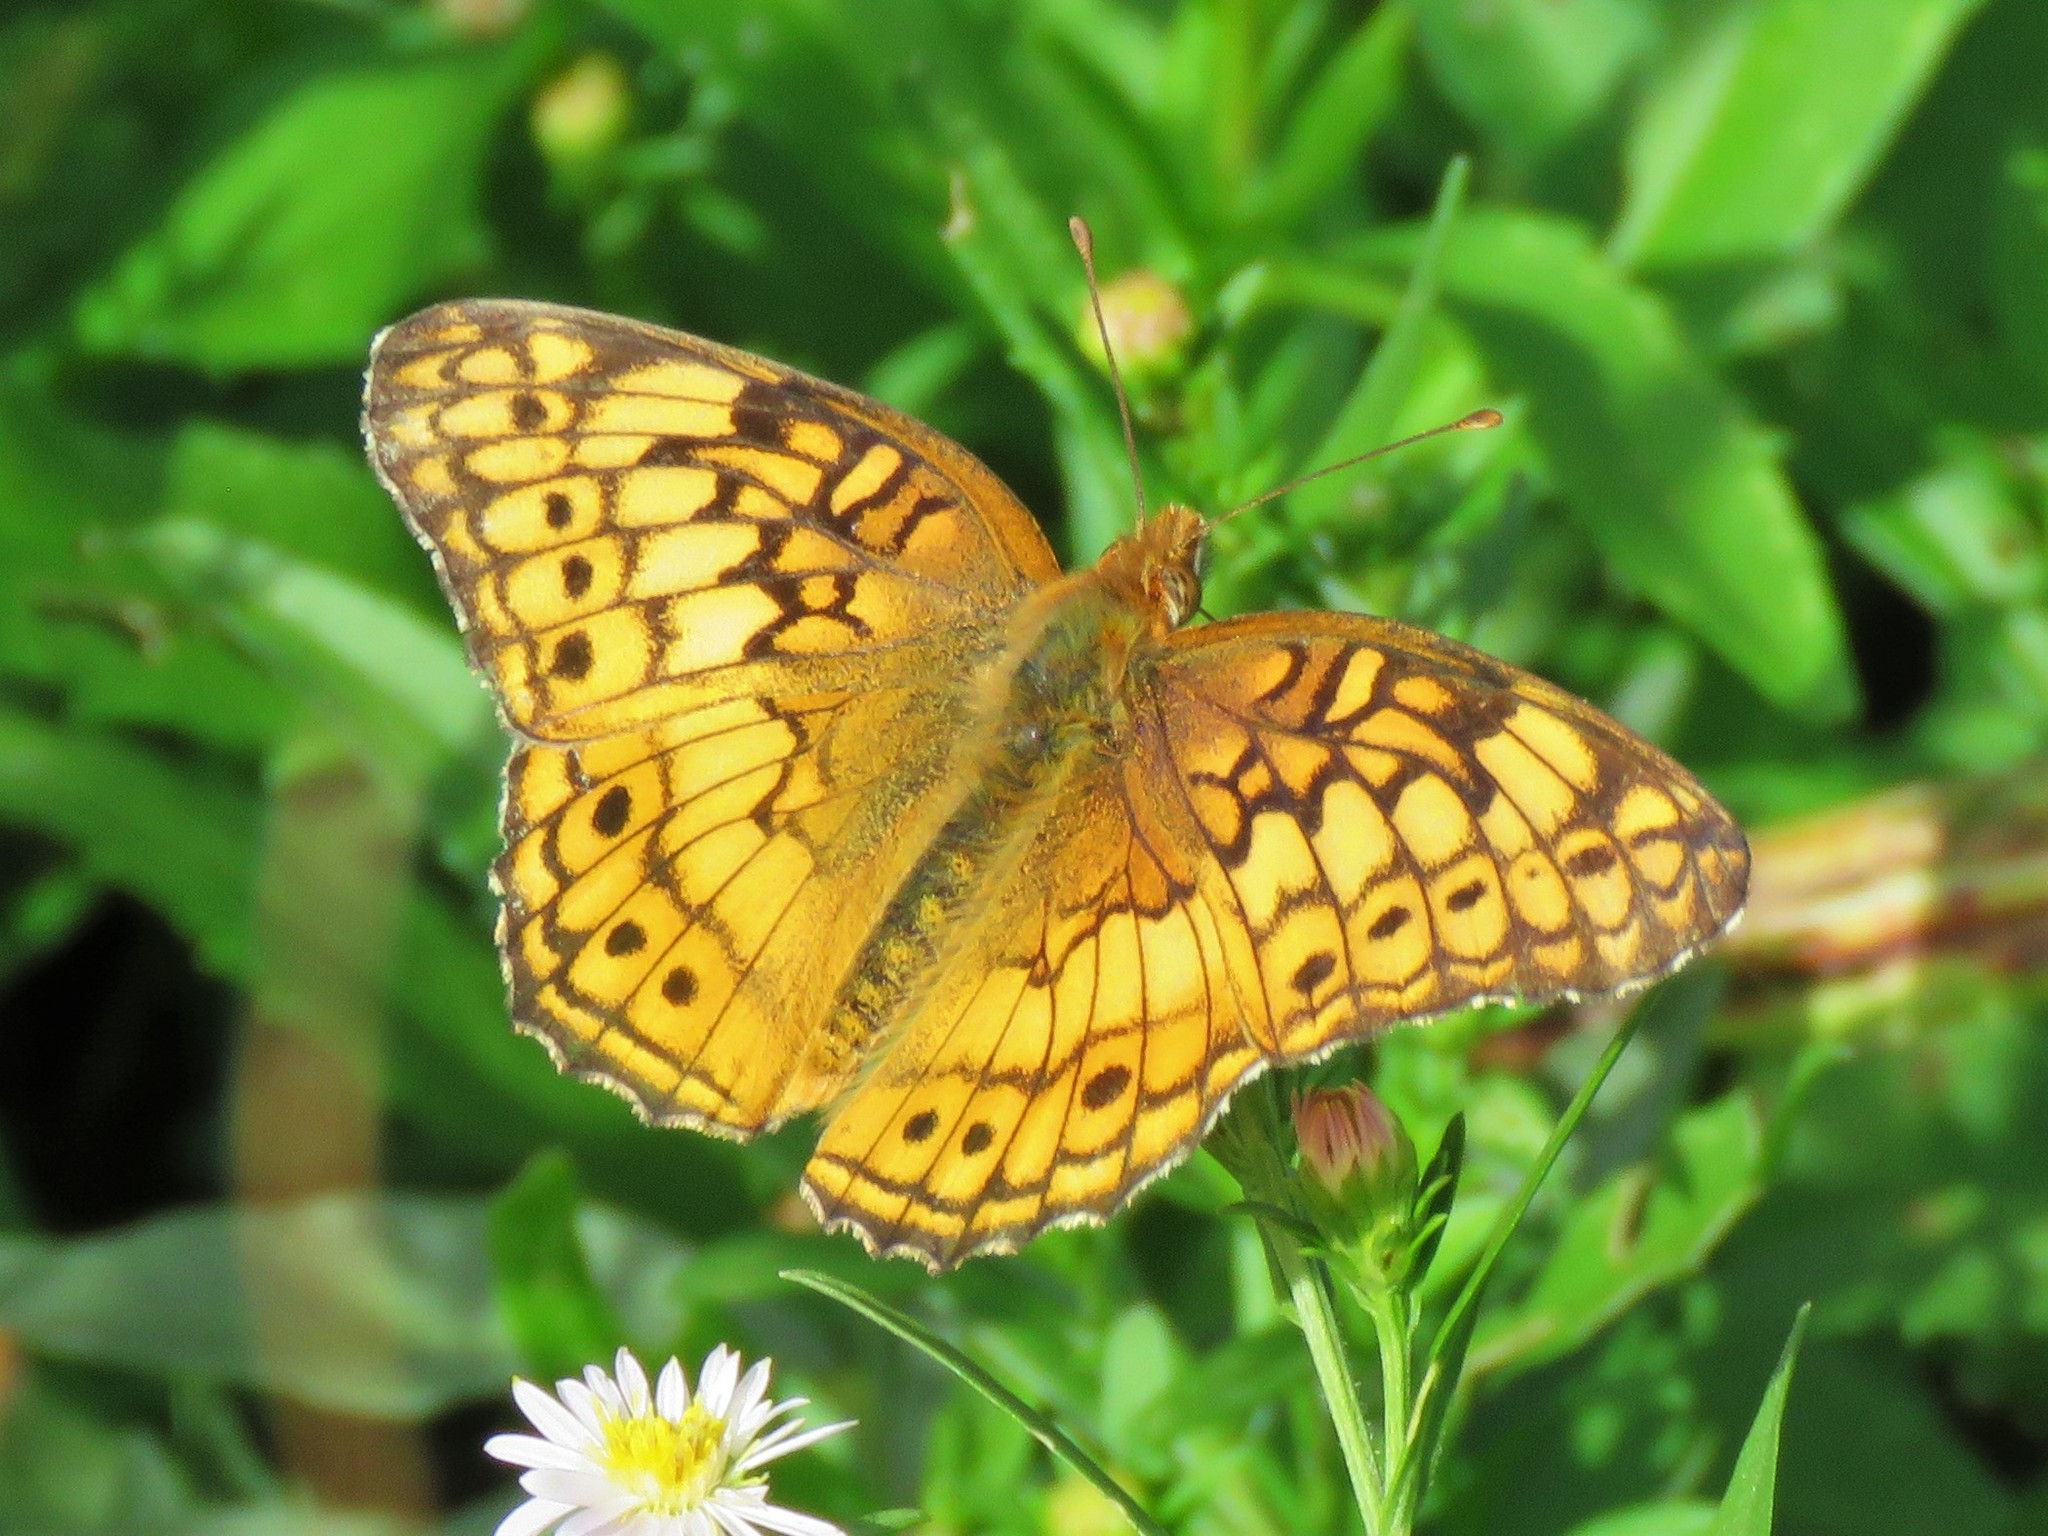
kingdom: Animalia
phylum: Arthropoda
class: Insecta
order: Lepidoptera
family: Nymphalidae
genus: Euptoieta
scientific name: Euptoieta claudia
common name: Variegated fritillary
